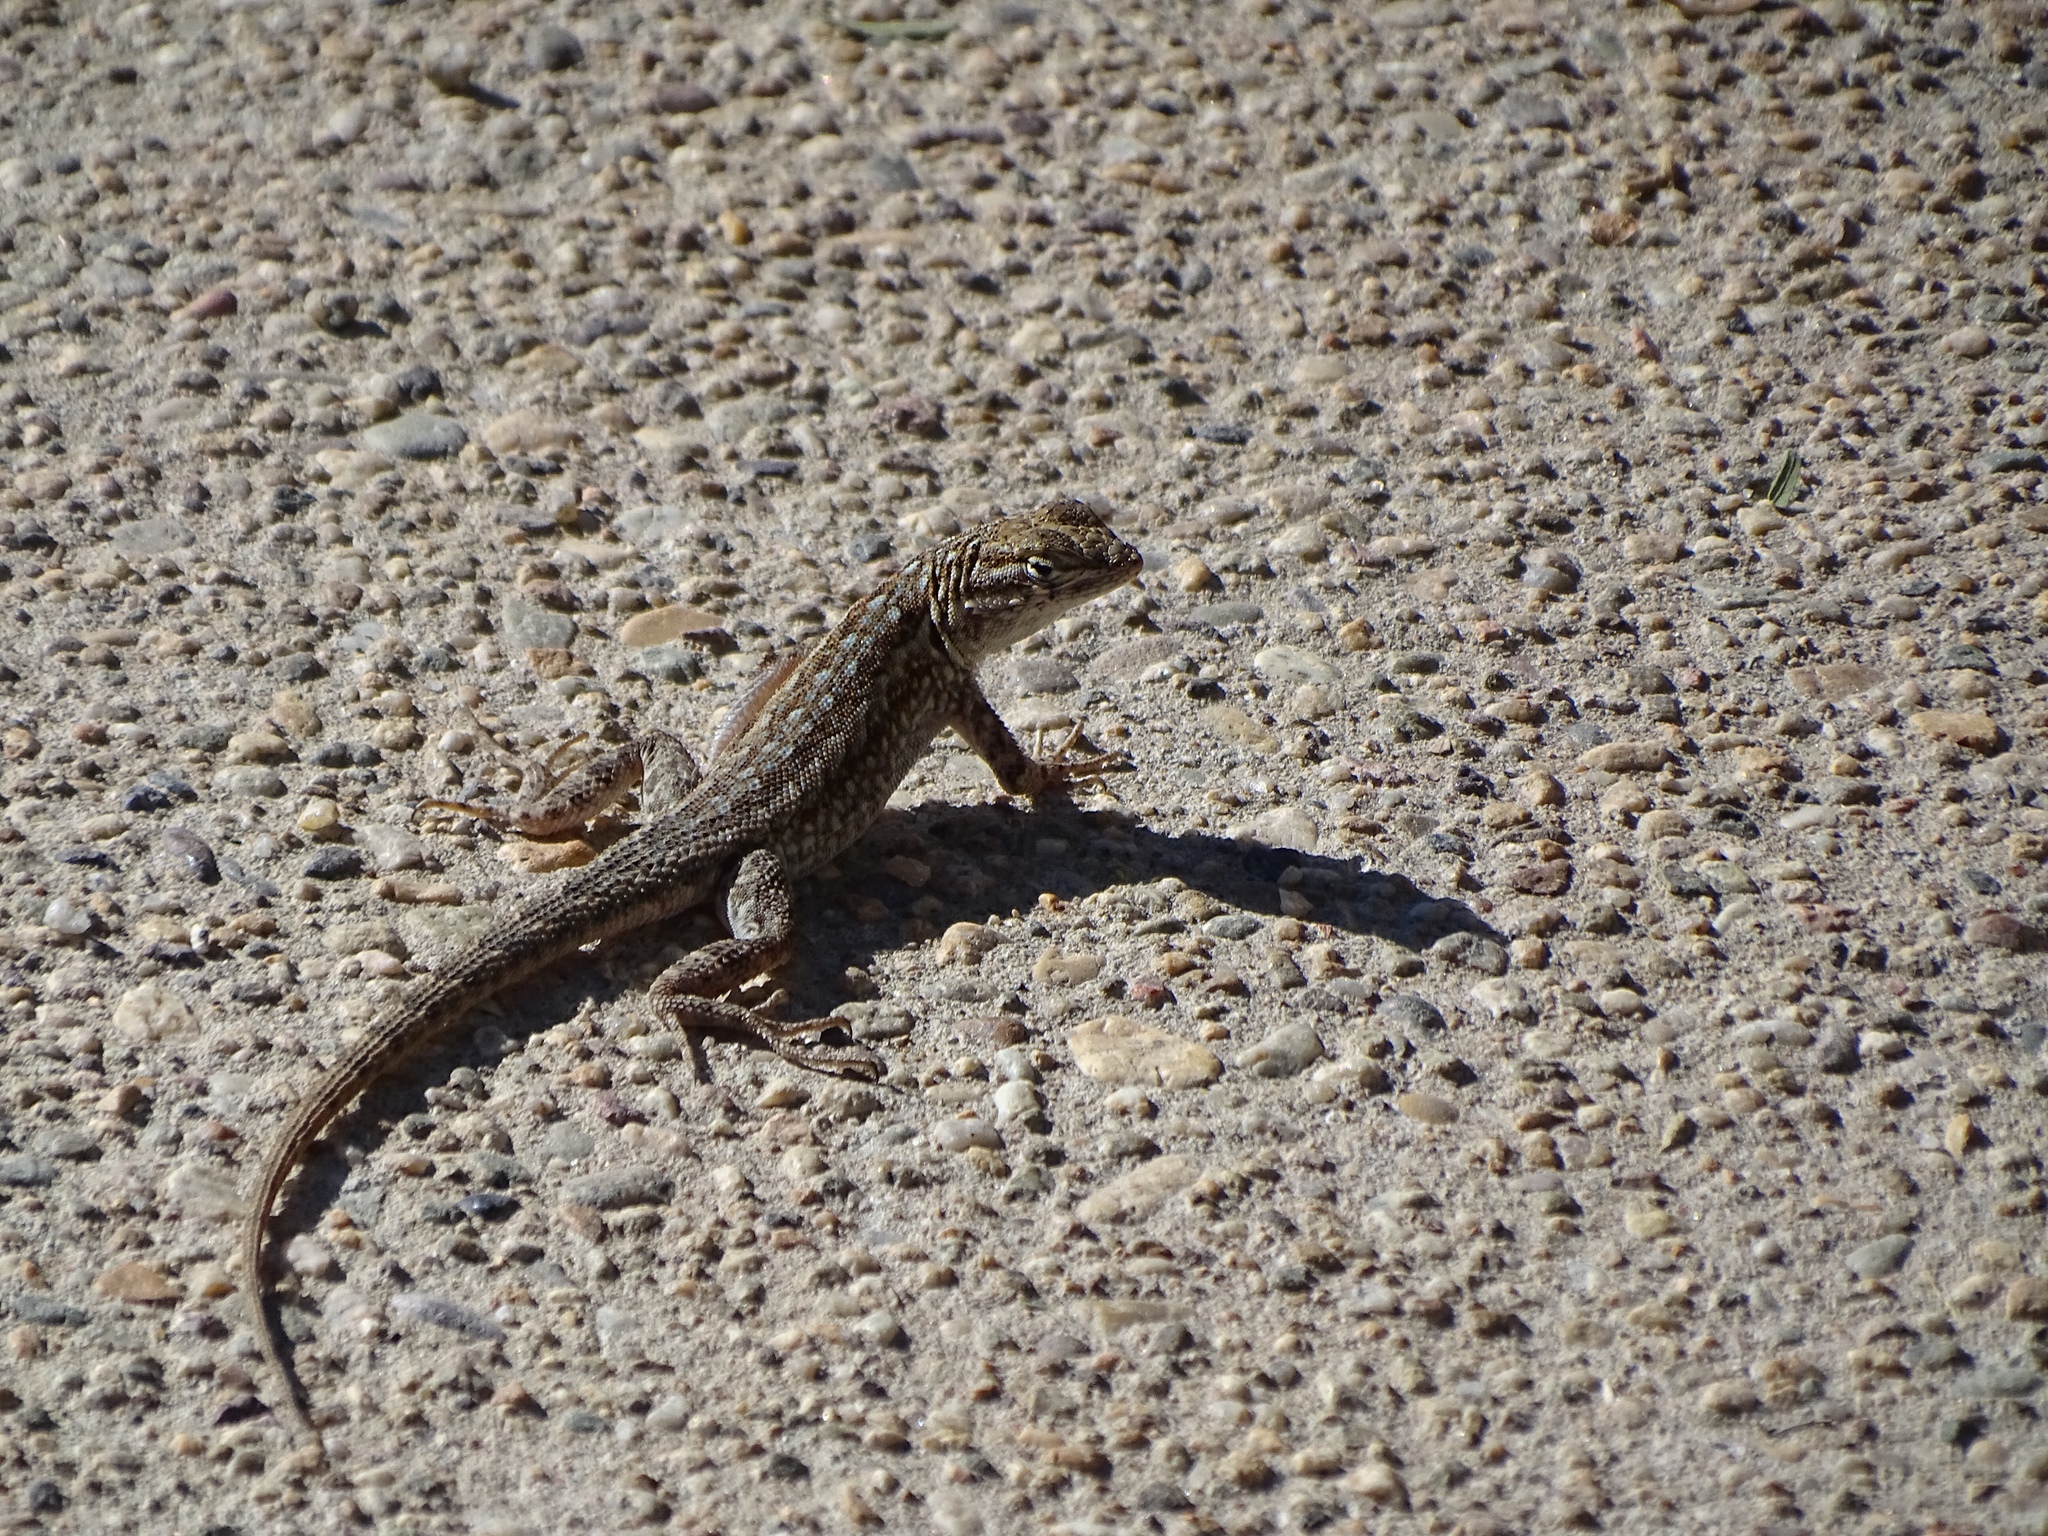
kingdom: Animalia
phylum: Chordata
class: Squamata
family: Phrynosomatidae
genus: Uta
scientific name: Uta stansburiana
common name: Side-blotched lizard
